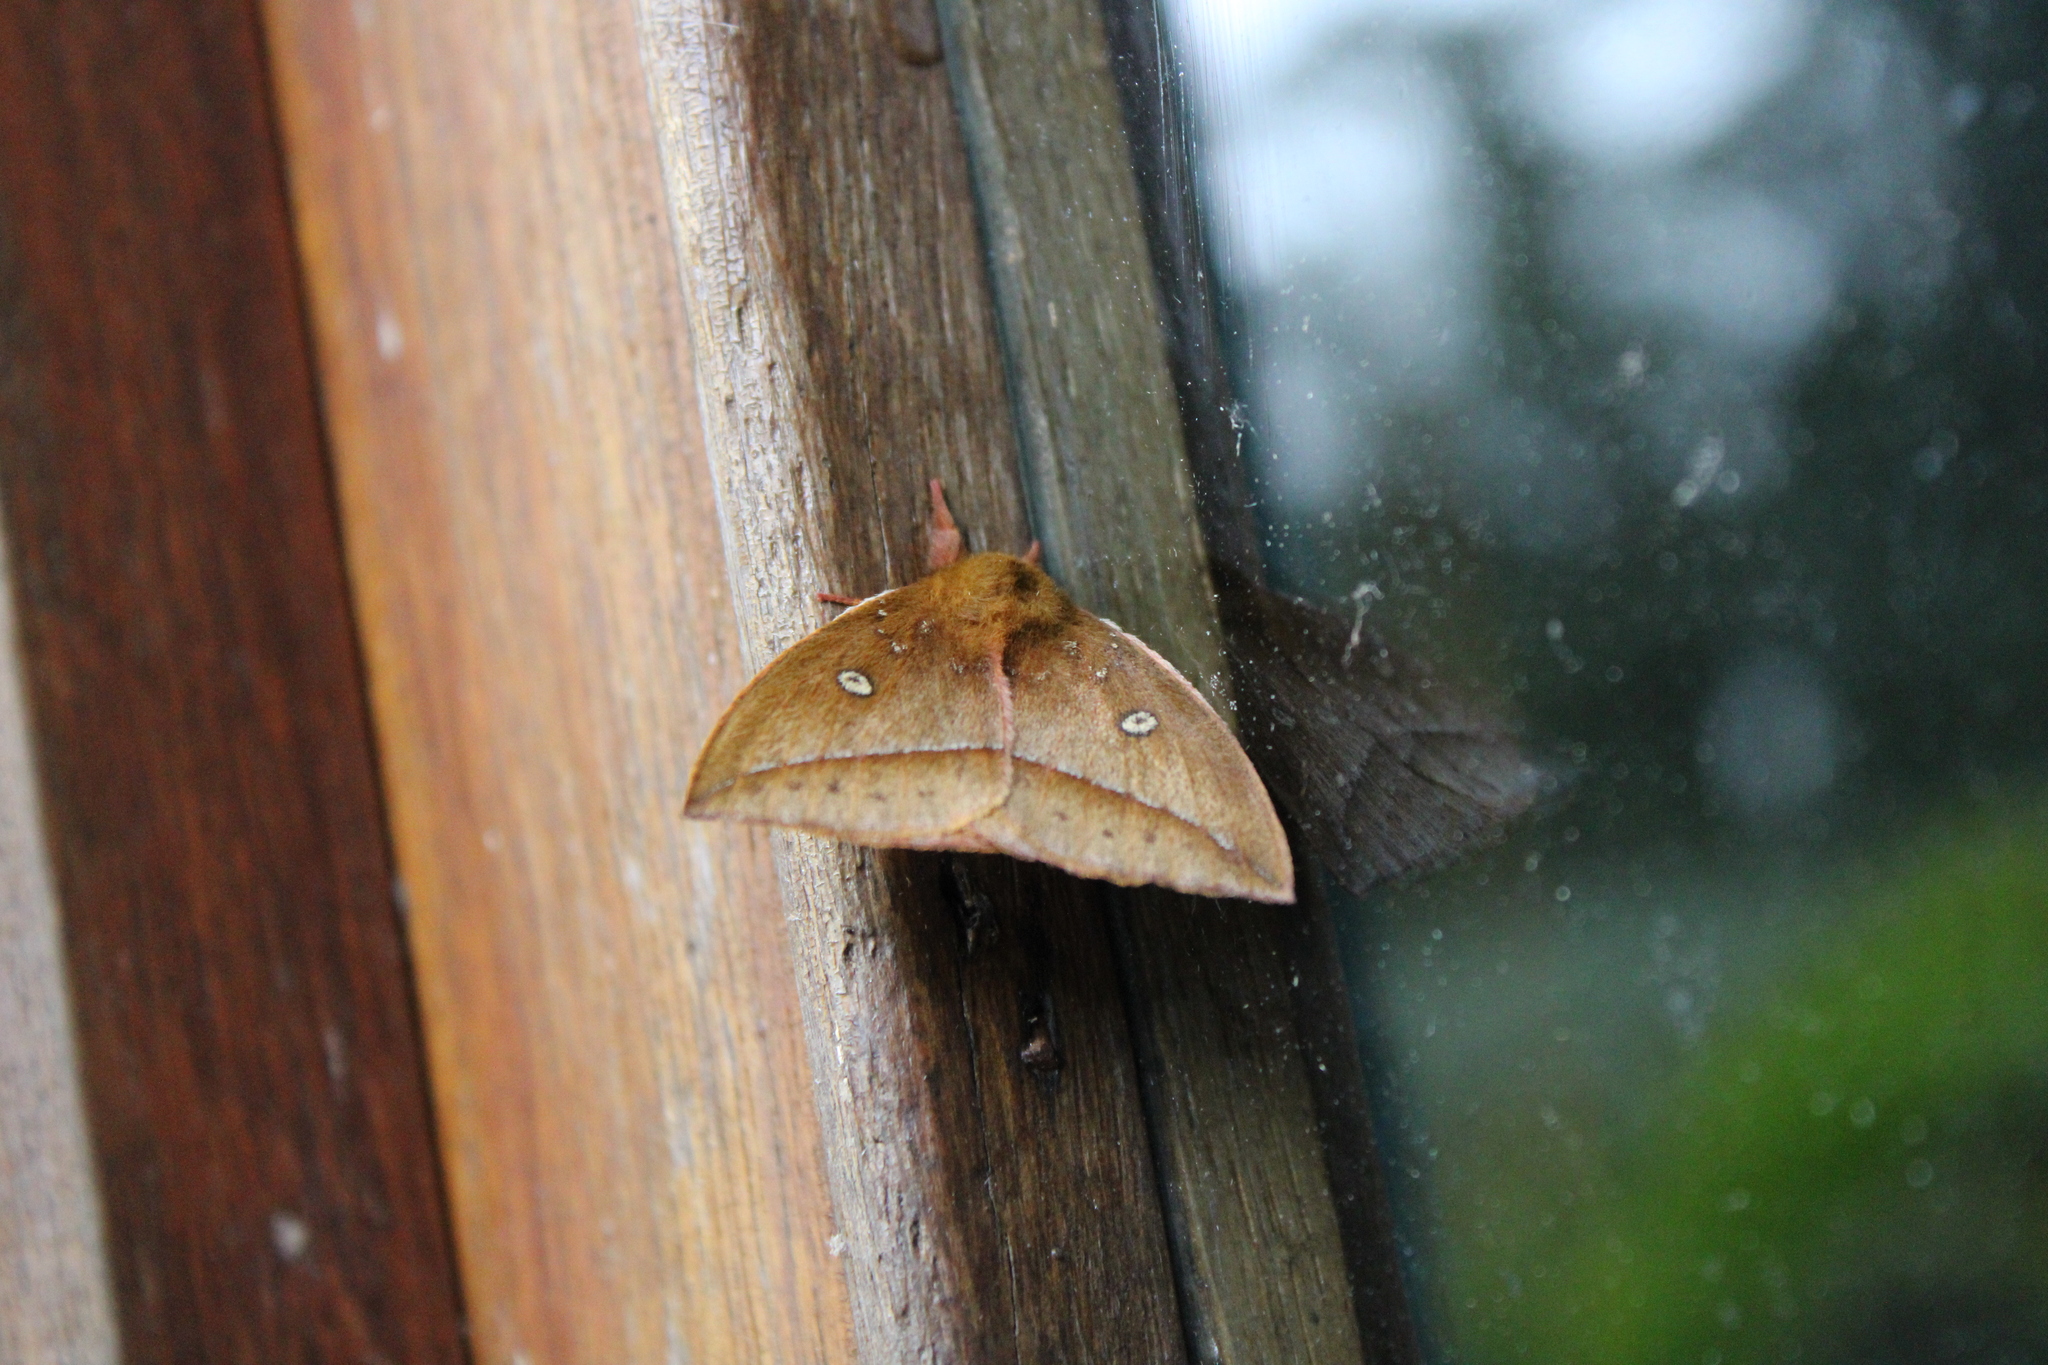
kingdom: Animalia
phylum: Arthropoda
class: Insecta
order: Lepidoptera
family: Saturniidae
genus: Catacantha
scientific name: Catacantha ferruginea
